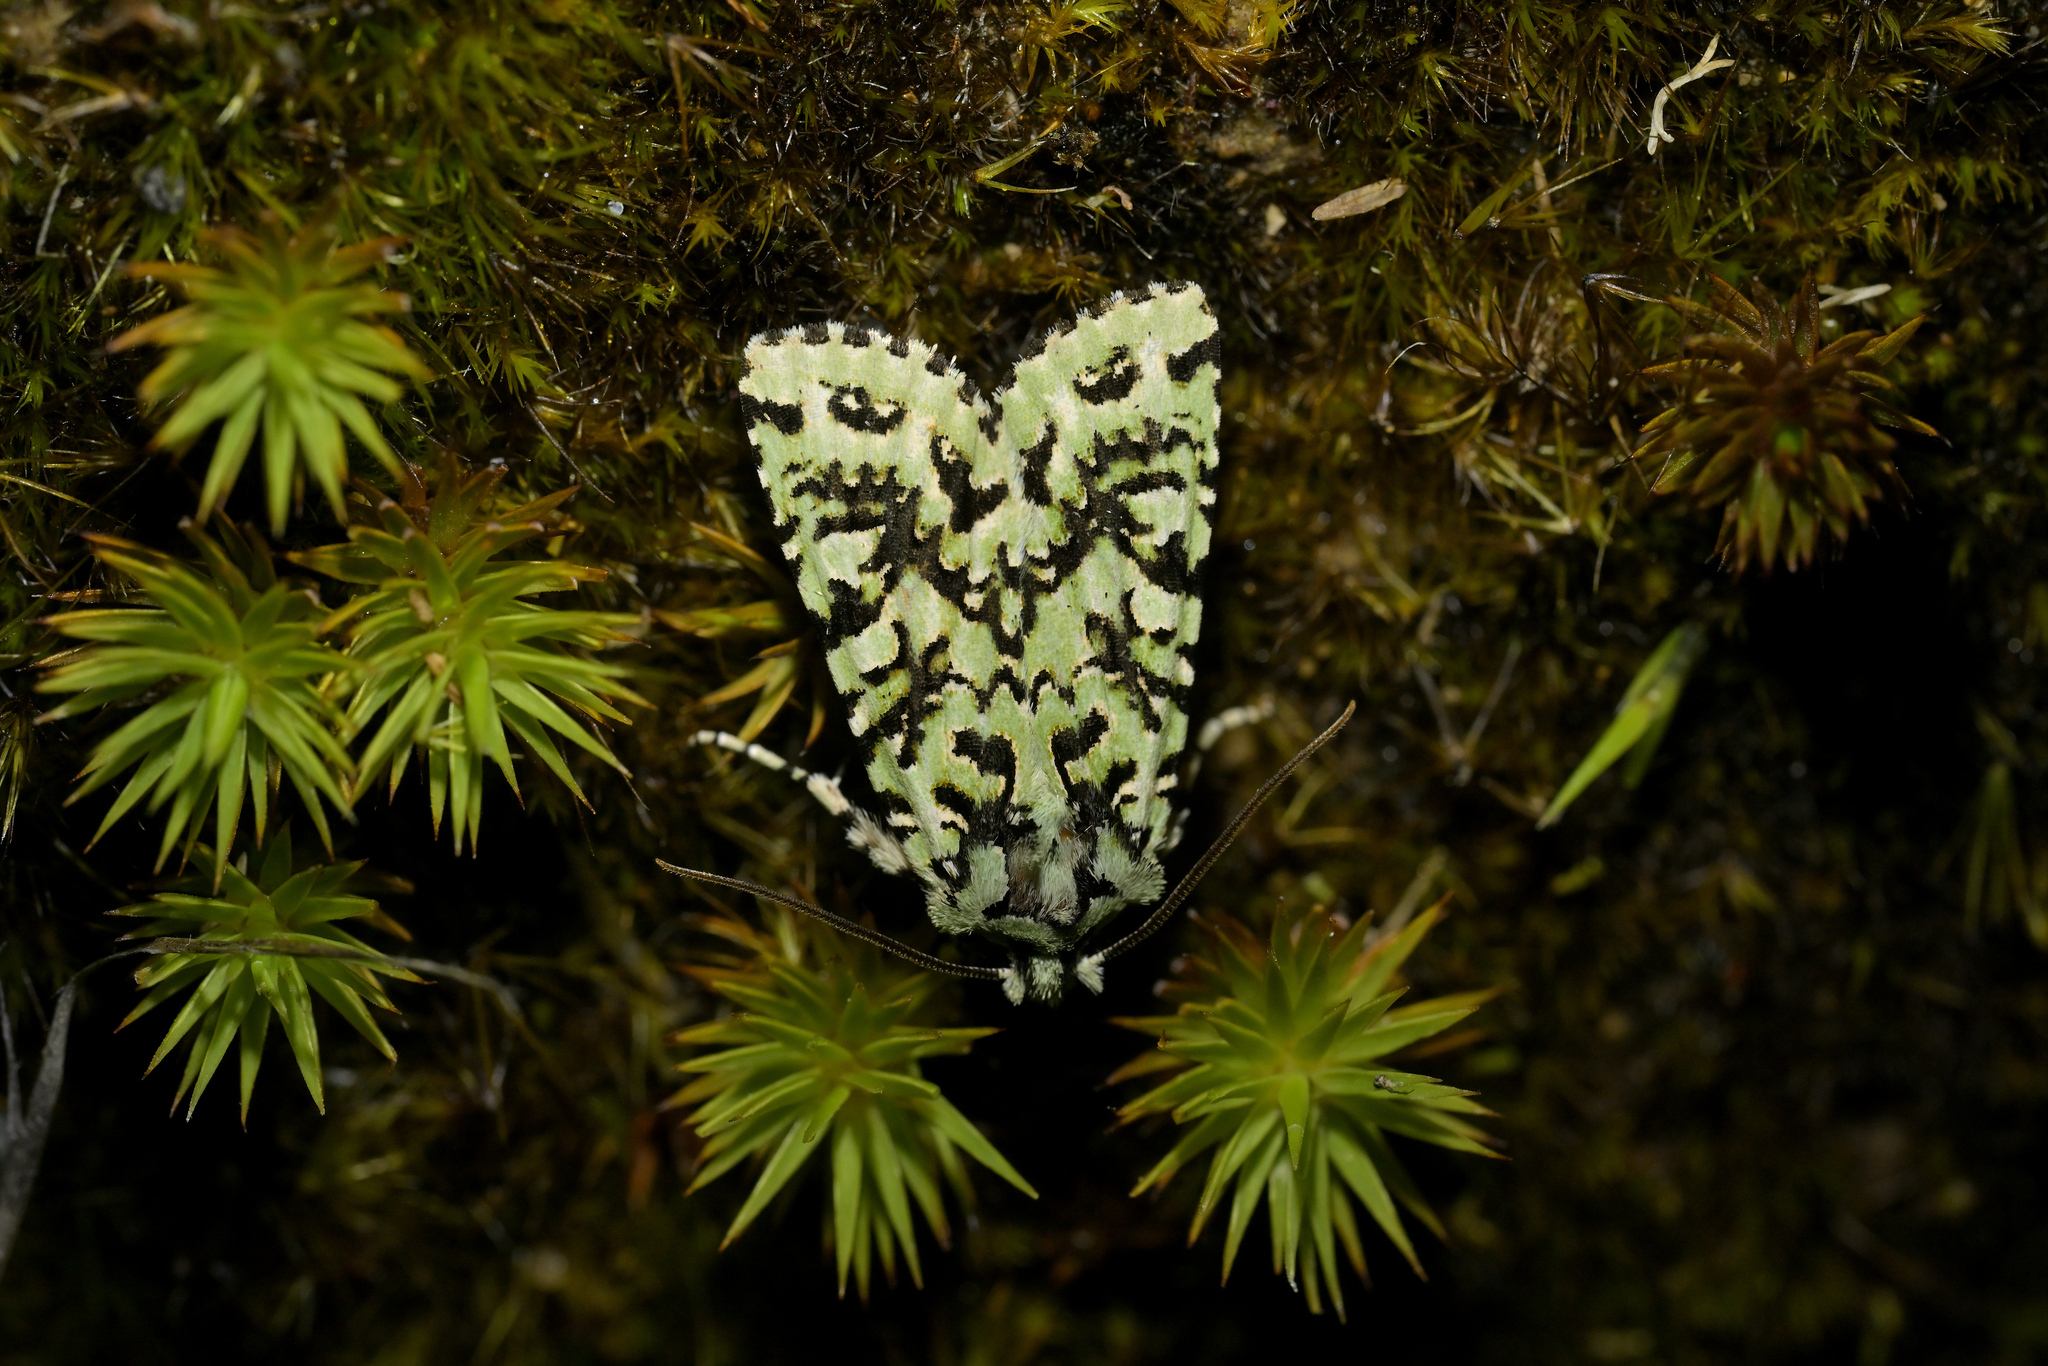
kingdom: Animalia
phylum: Arthropoda
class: Insecta
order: Lepidoptera
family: Noctuidae
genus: Meterana
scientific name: Meterana
